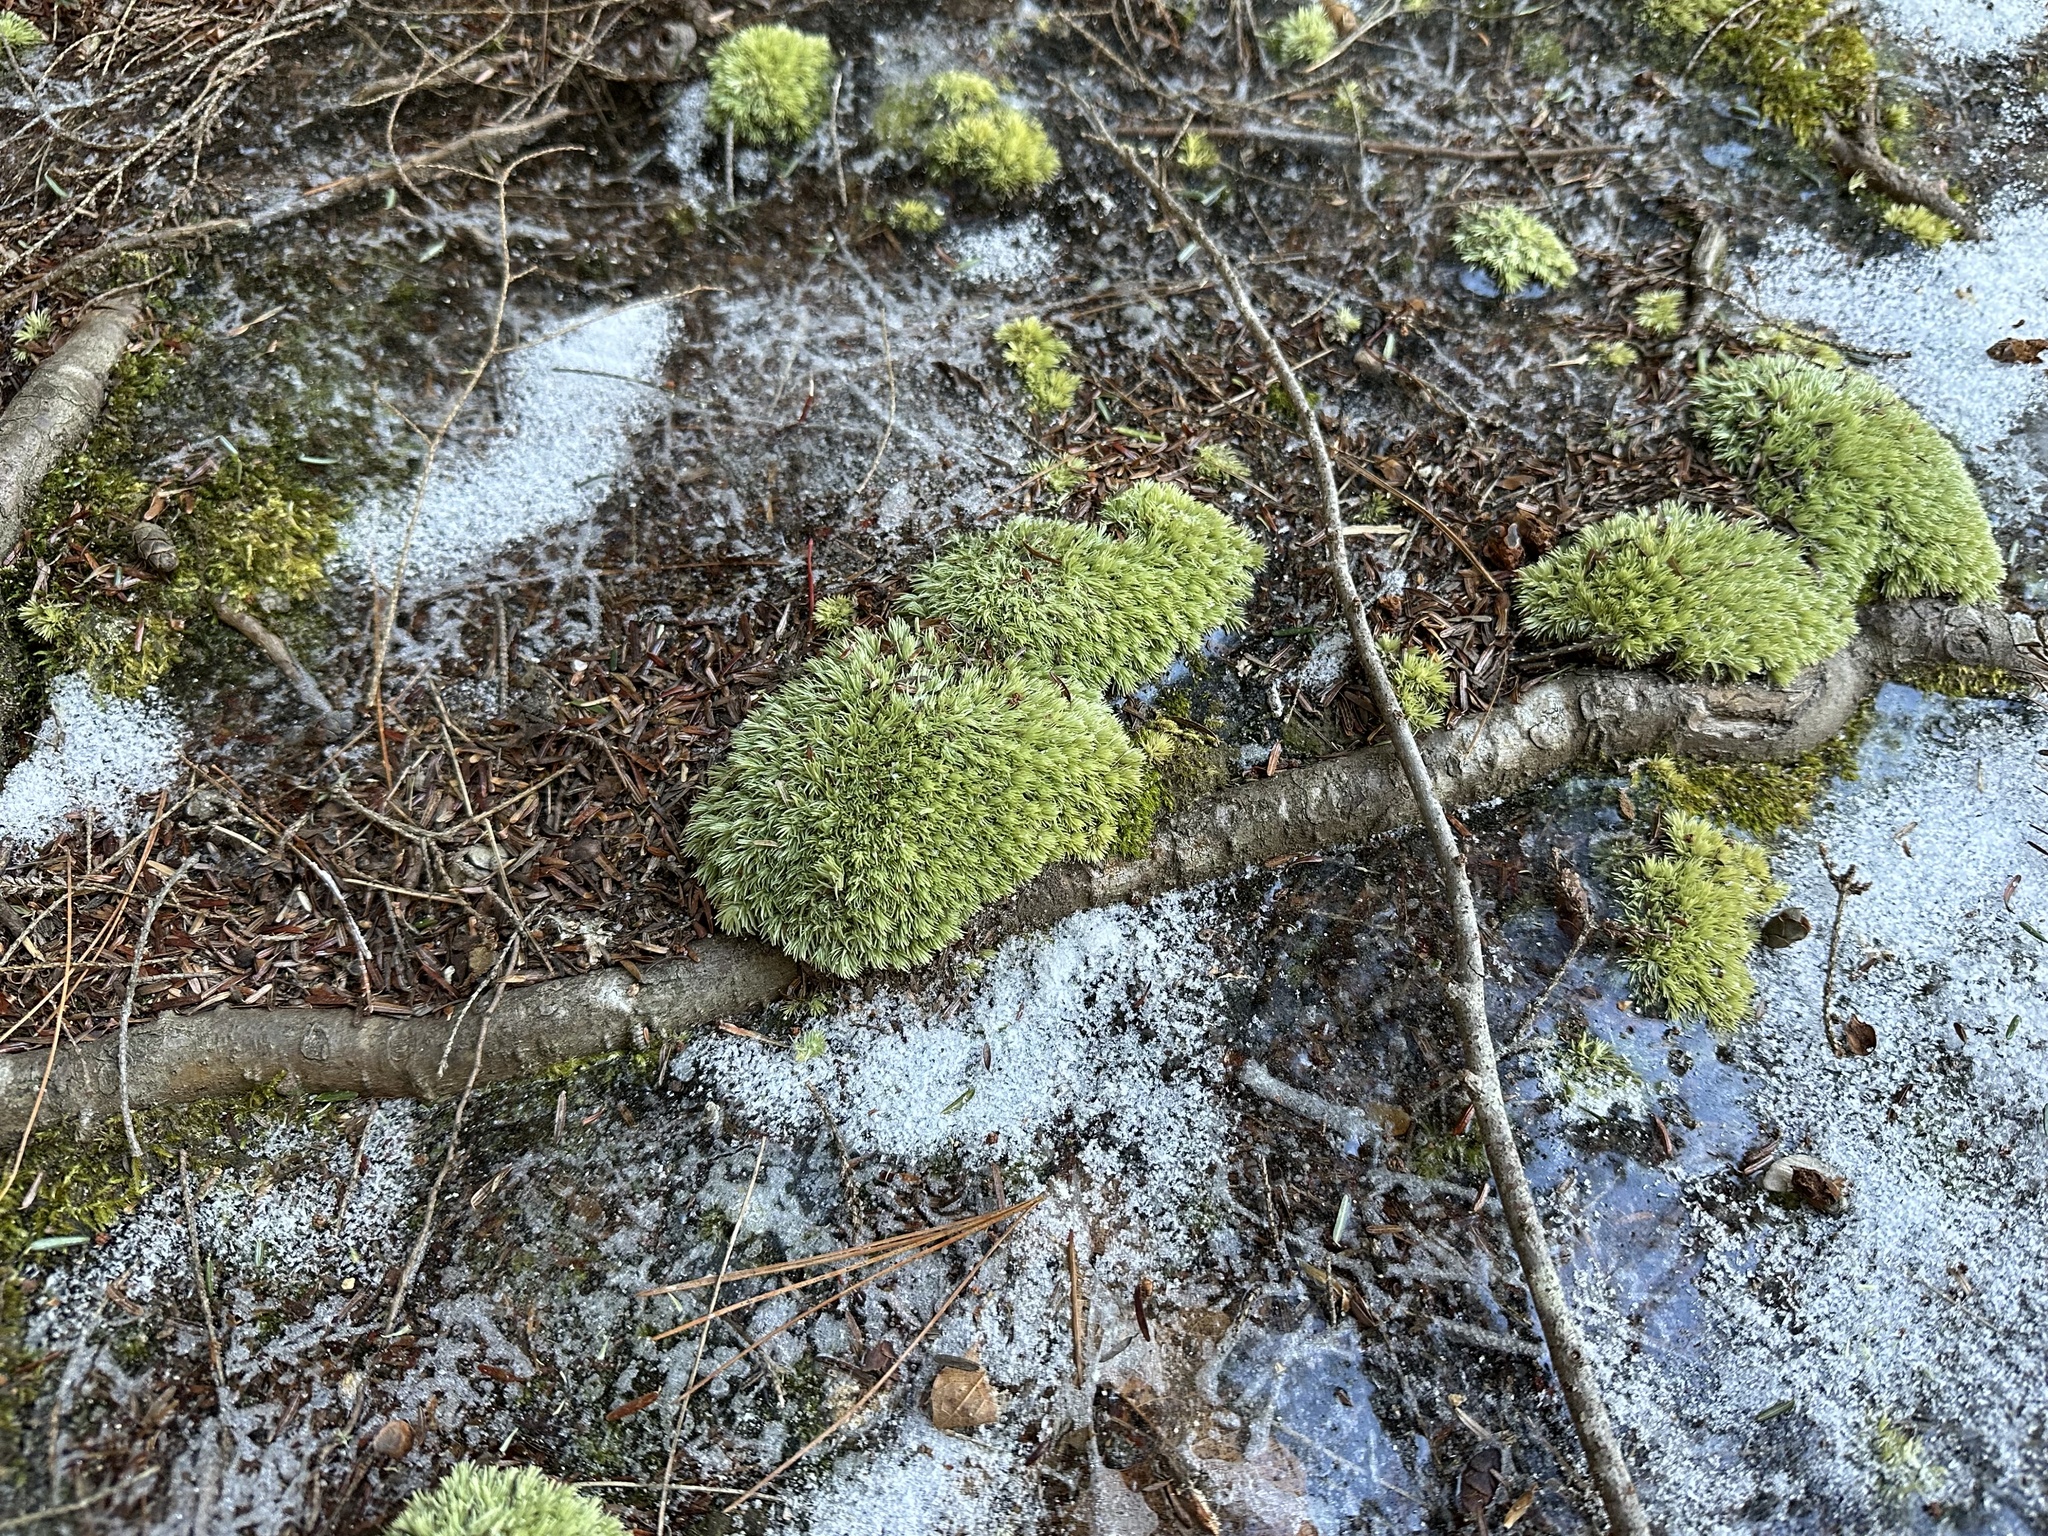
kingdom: Plantae
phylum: Bryophyta
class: Bryopsida
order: Dicranales
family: Leucobryaceae
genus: Leucobryum
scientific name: Leucobryum glaucum
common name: Large white-moss
